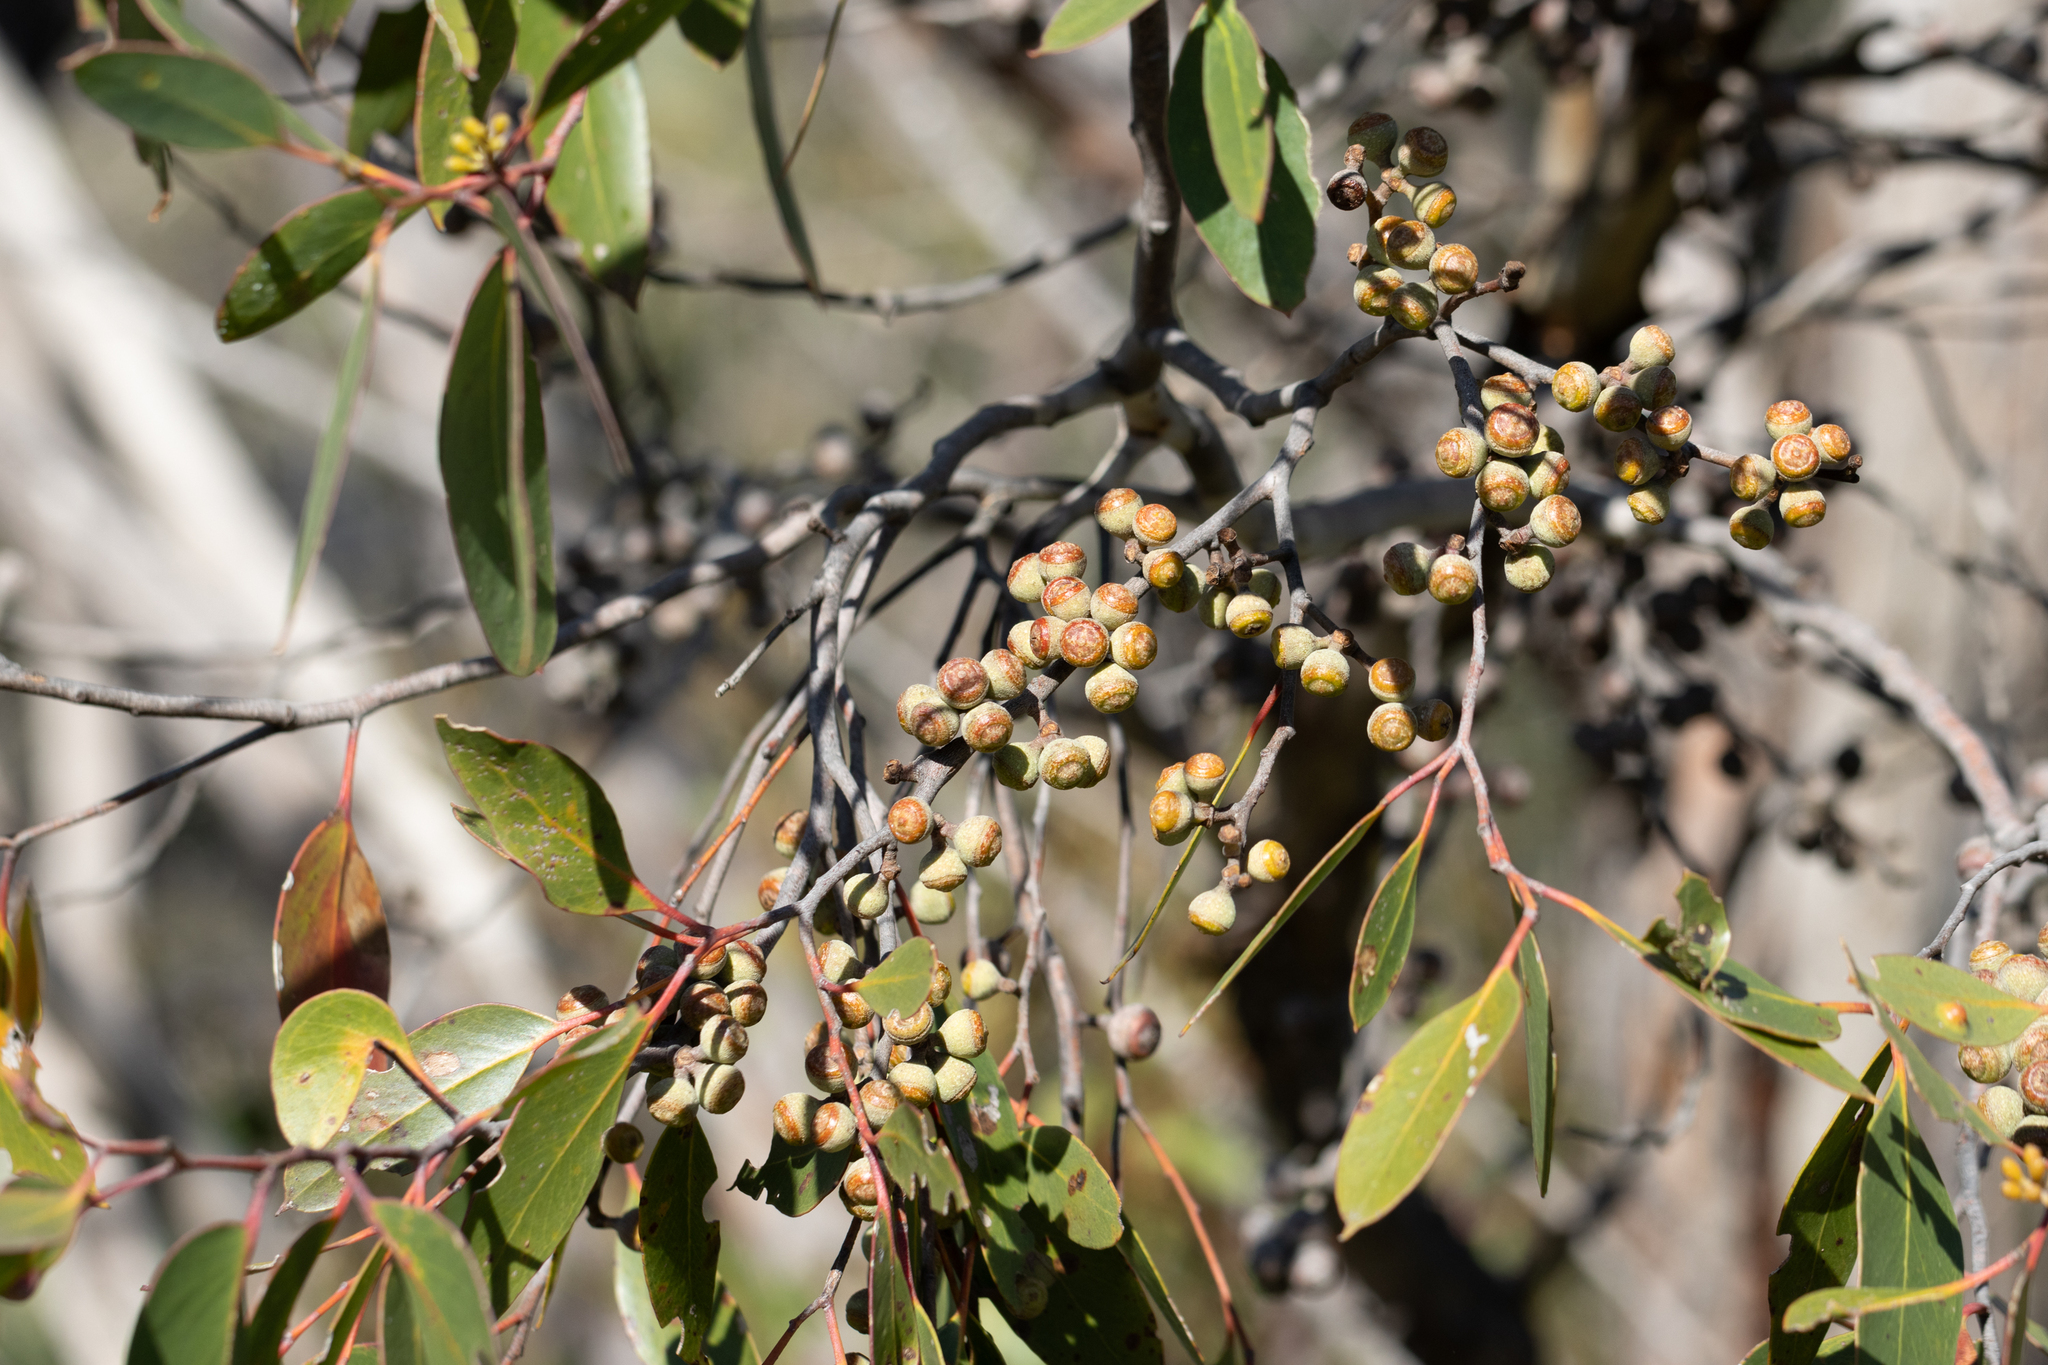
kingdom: Plantae
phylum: Tracheophyta
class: Magnoliopsida
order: Myrtales
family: Myrtaceae
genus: Eucalyptus
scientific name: Eucalyptus baxteri
